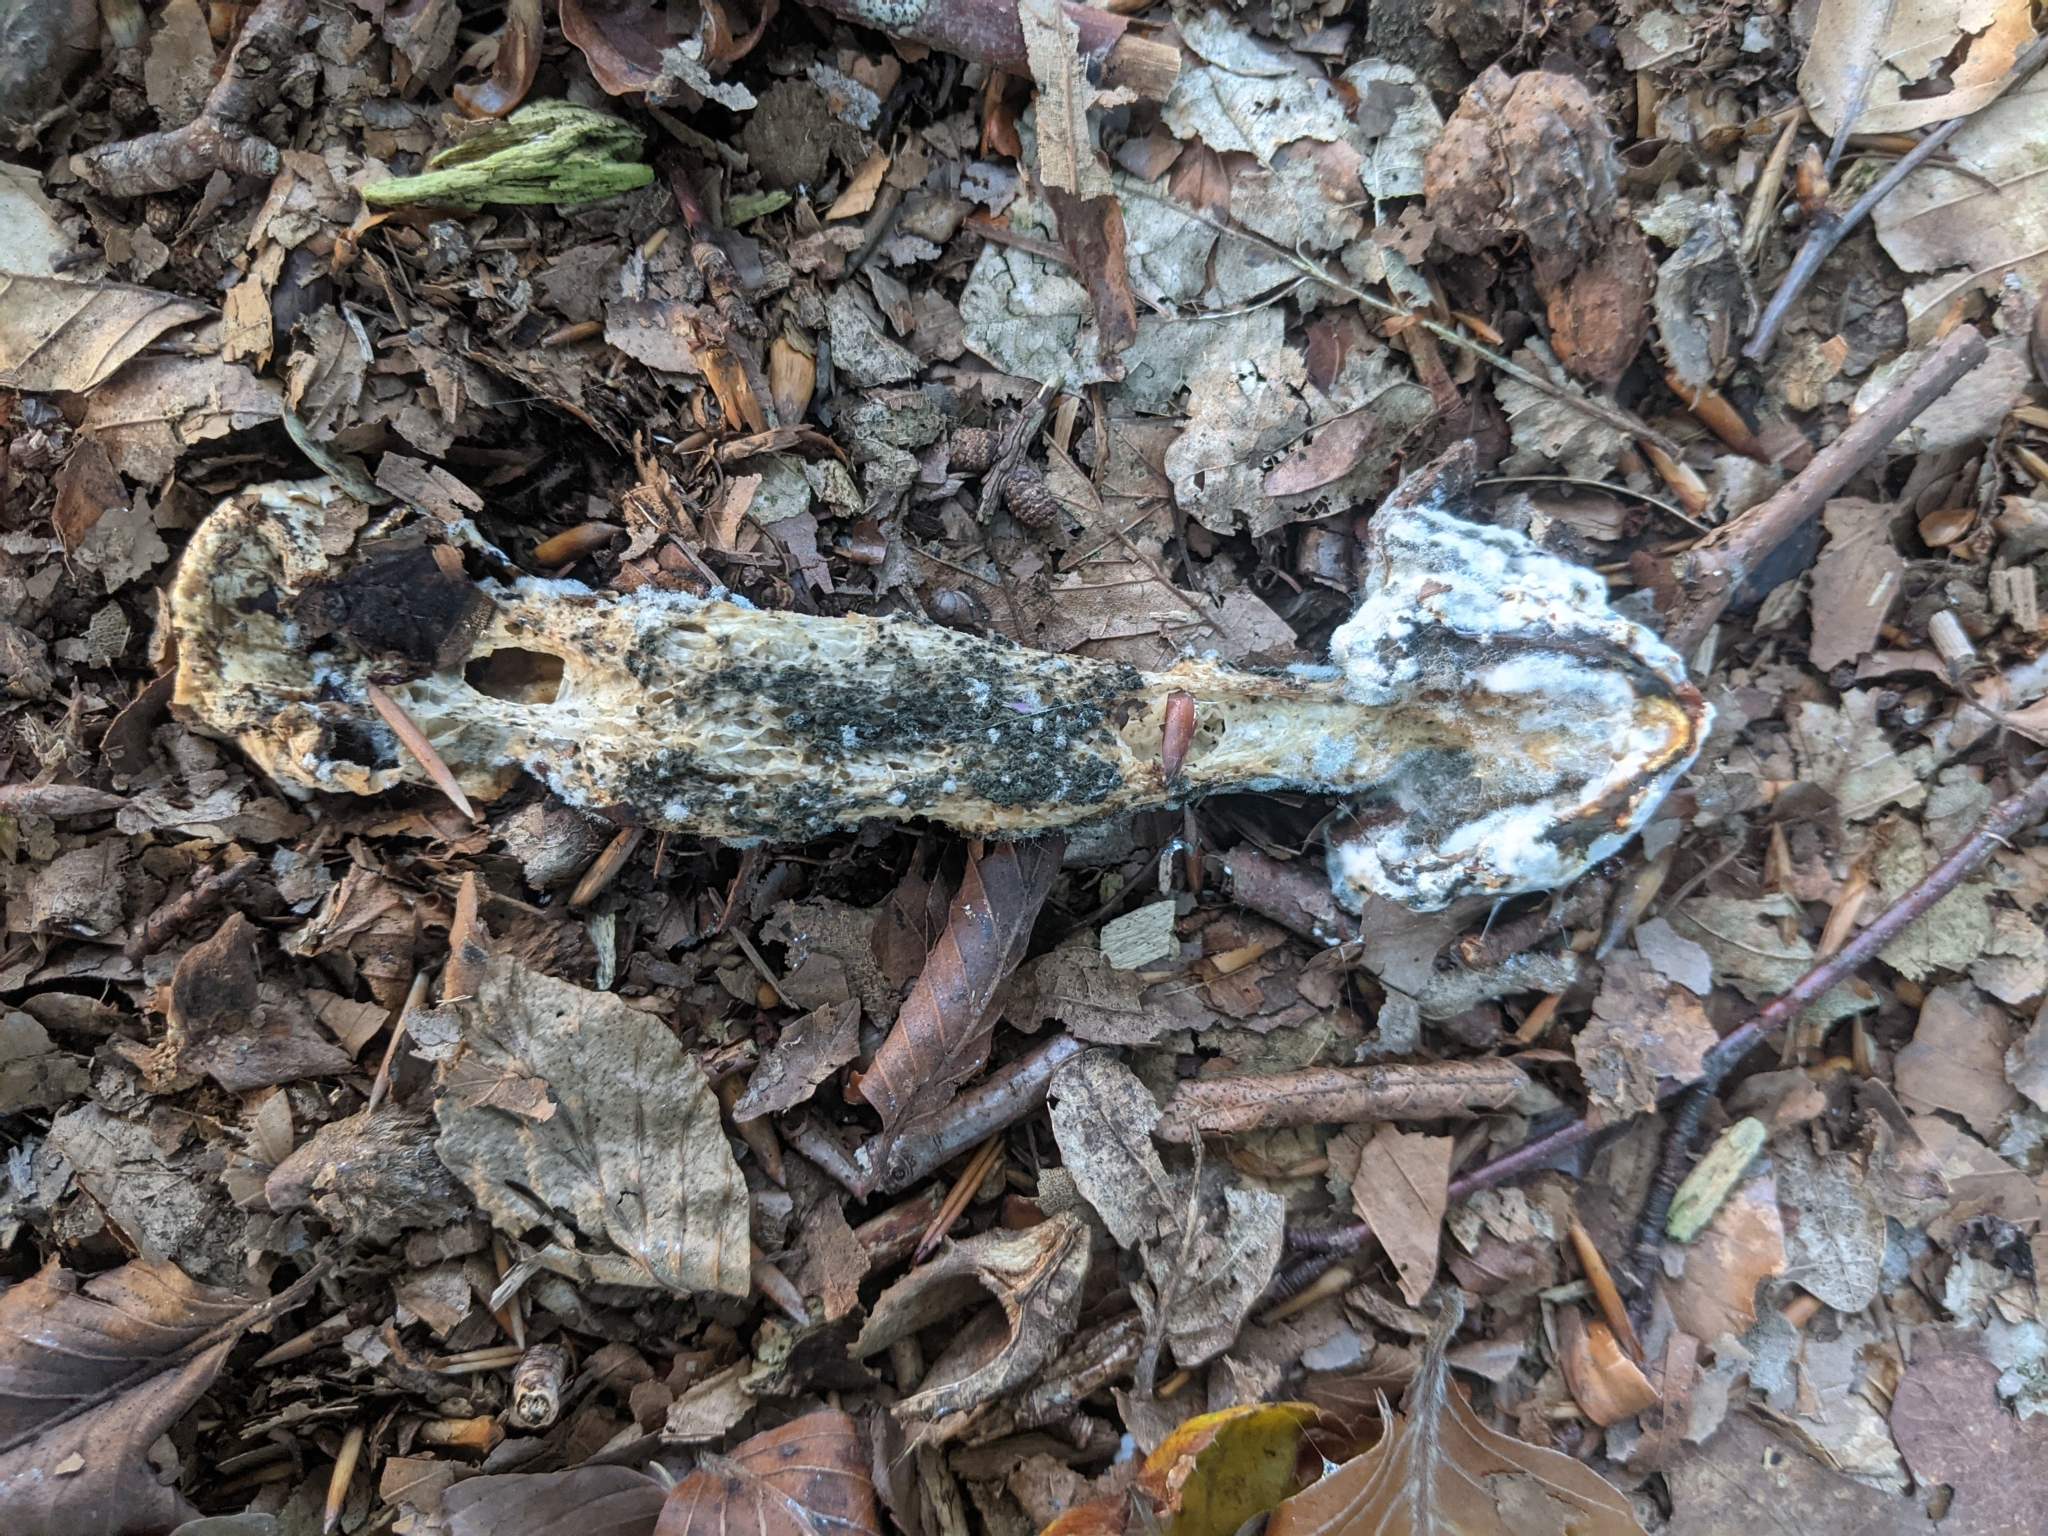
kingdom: Fungi
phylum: Basidiomycota
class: Agaricomycetes
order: Phallales
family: Phallaceae
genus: Phallus
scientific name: Phallus impudicus
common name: Common stinkhorn
